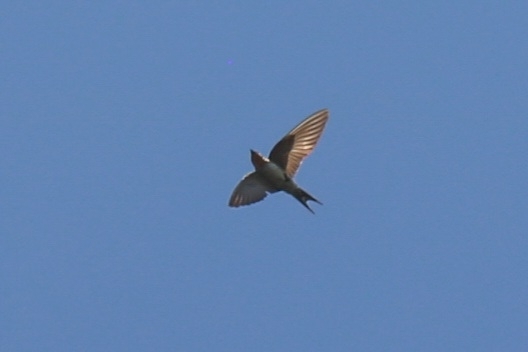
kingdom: Animalia
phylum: Chordata
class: Aves
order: Passeriformes
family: Hirundinidae
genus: Hirundo
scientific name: Hirundo neoxena
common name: Welcome swallow
